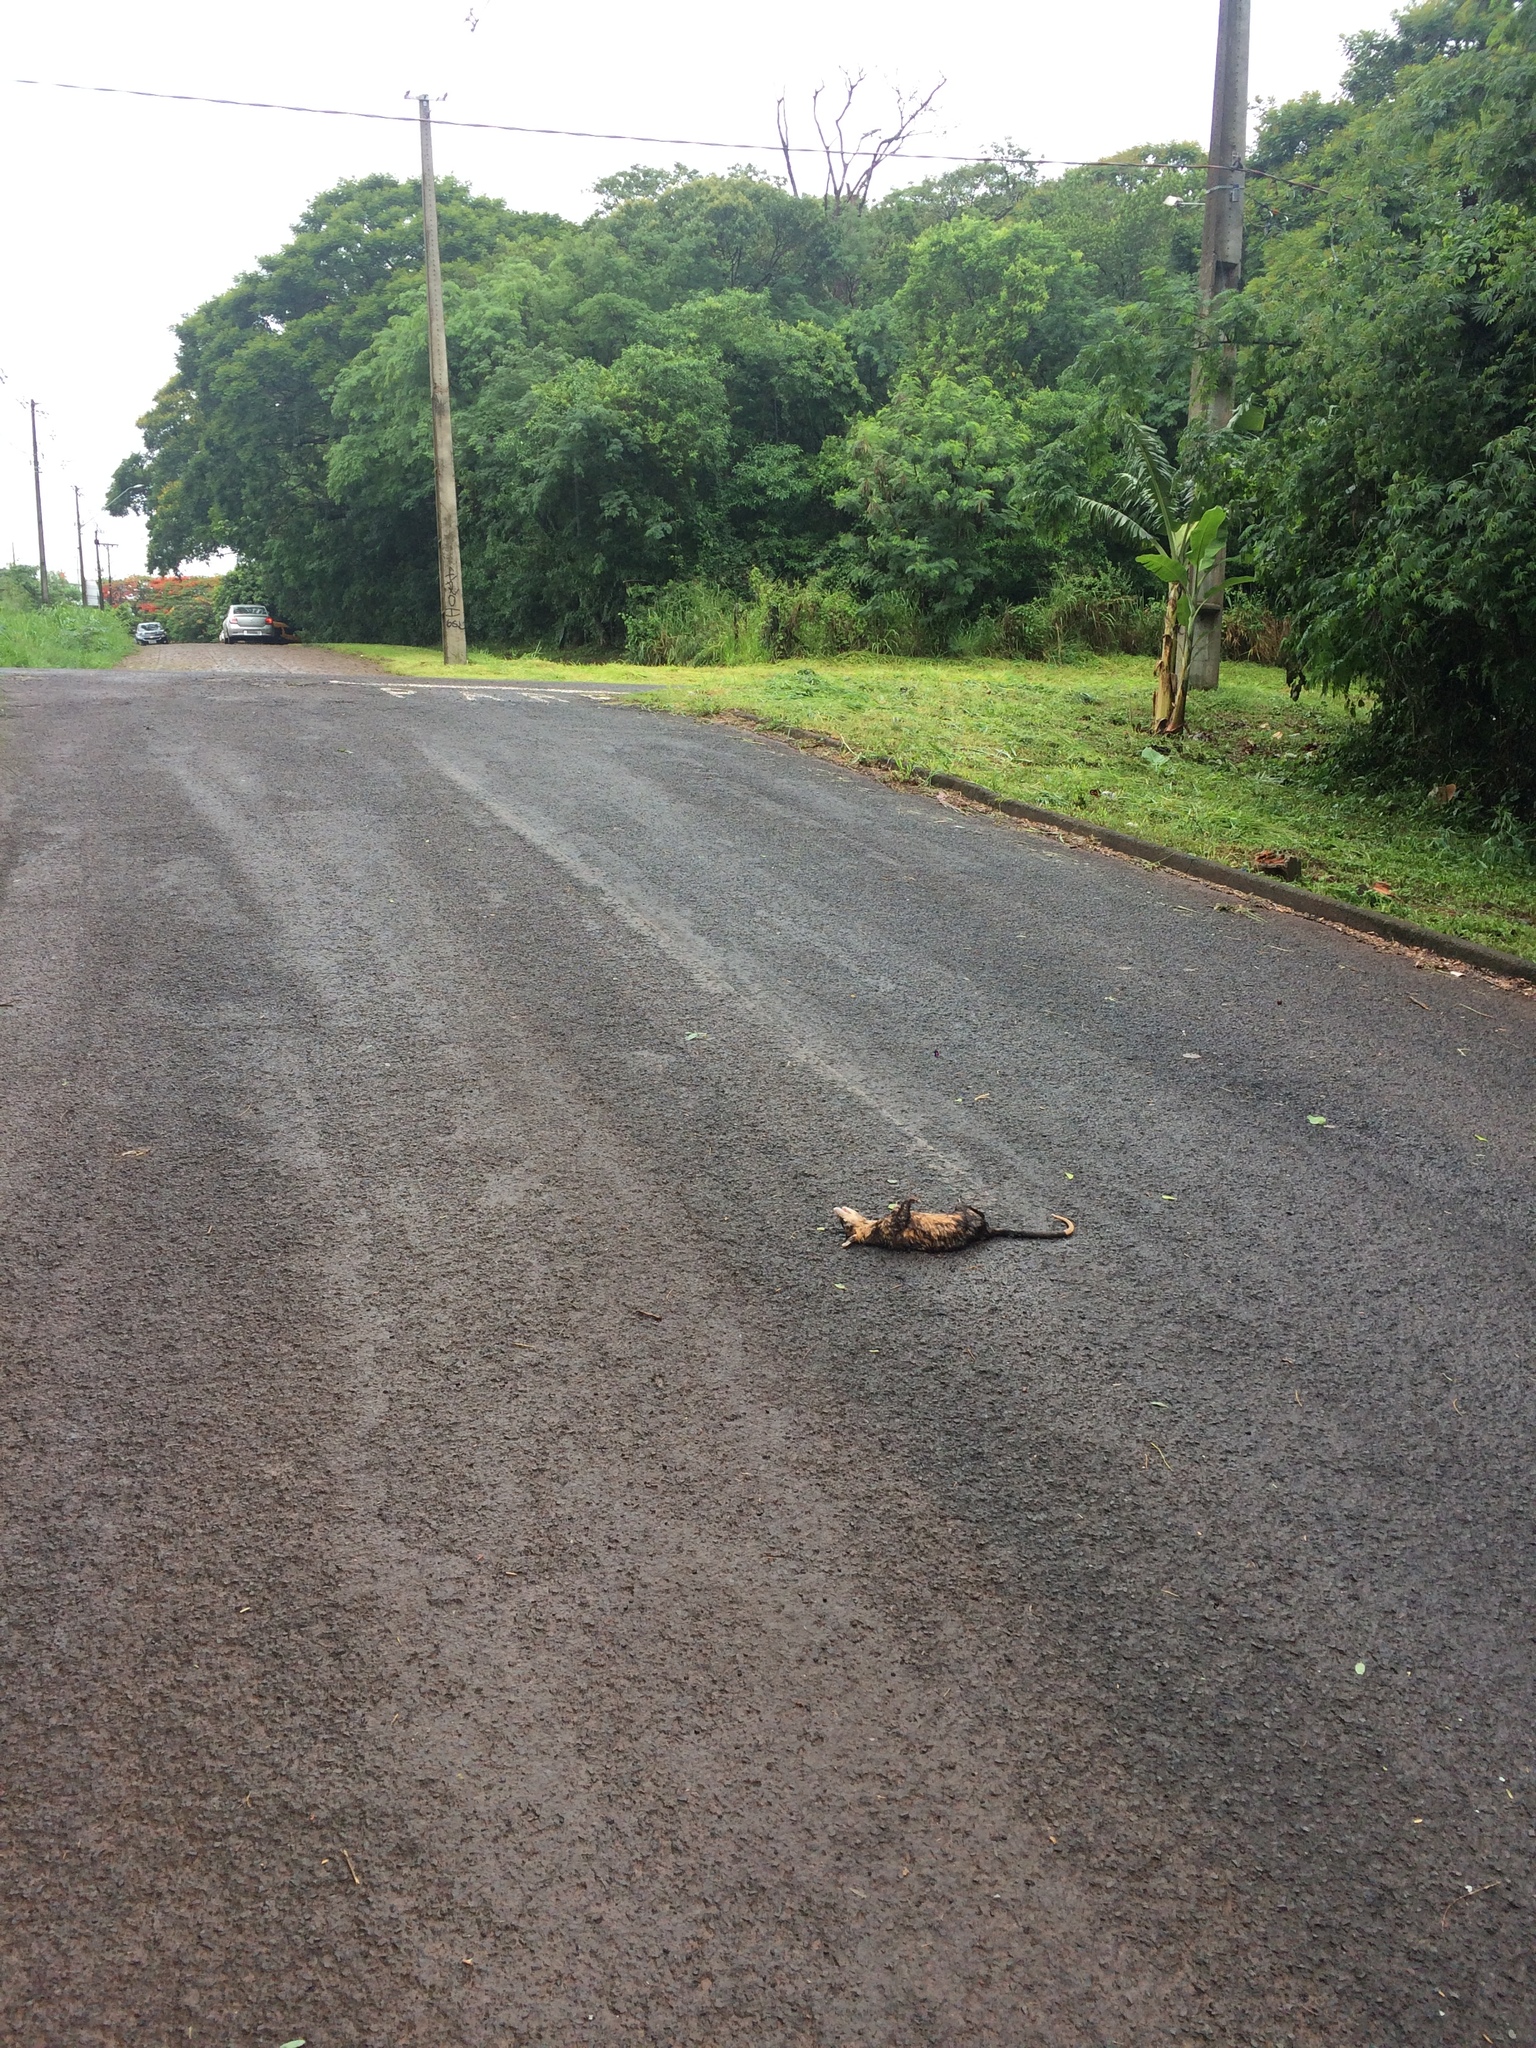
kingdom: Animalia
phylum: Chordata
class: Mammalia
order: Didelphimorphia
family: Didelphidae
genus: Didelphis
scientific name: Didelphis albiventris
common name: White-eared opossum
